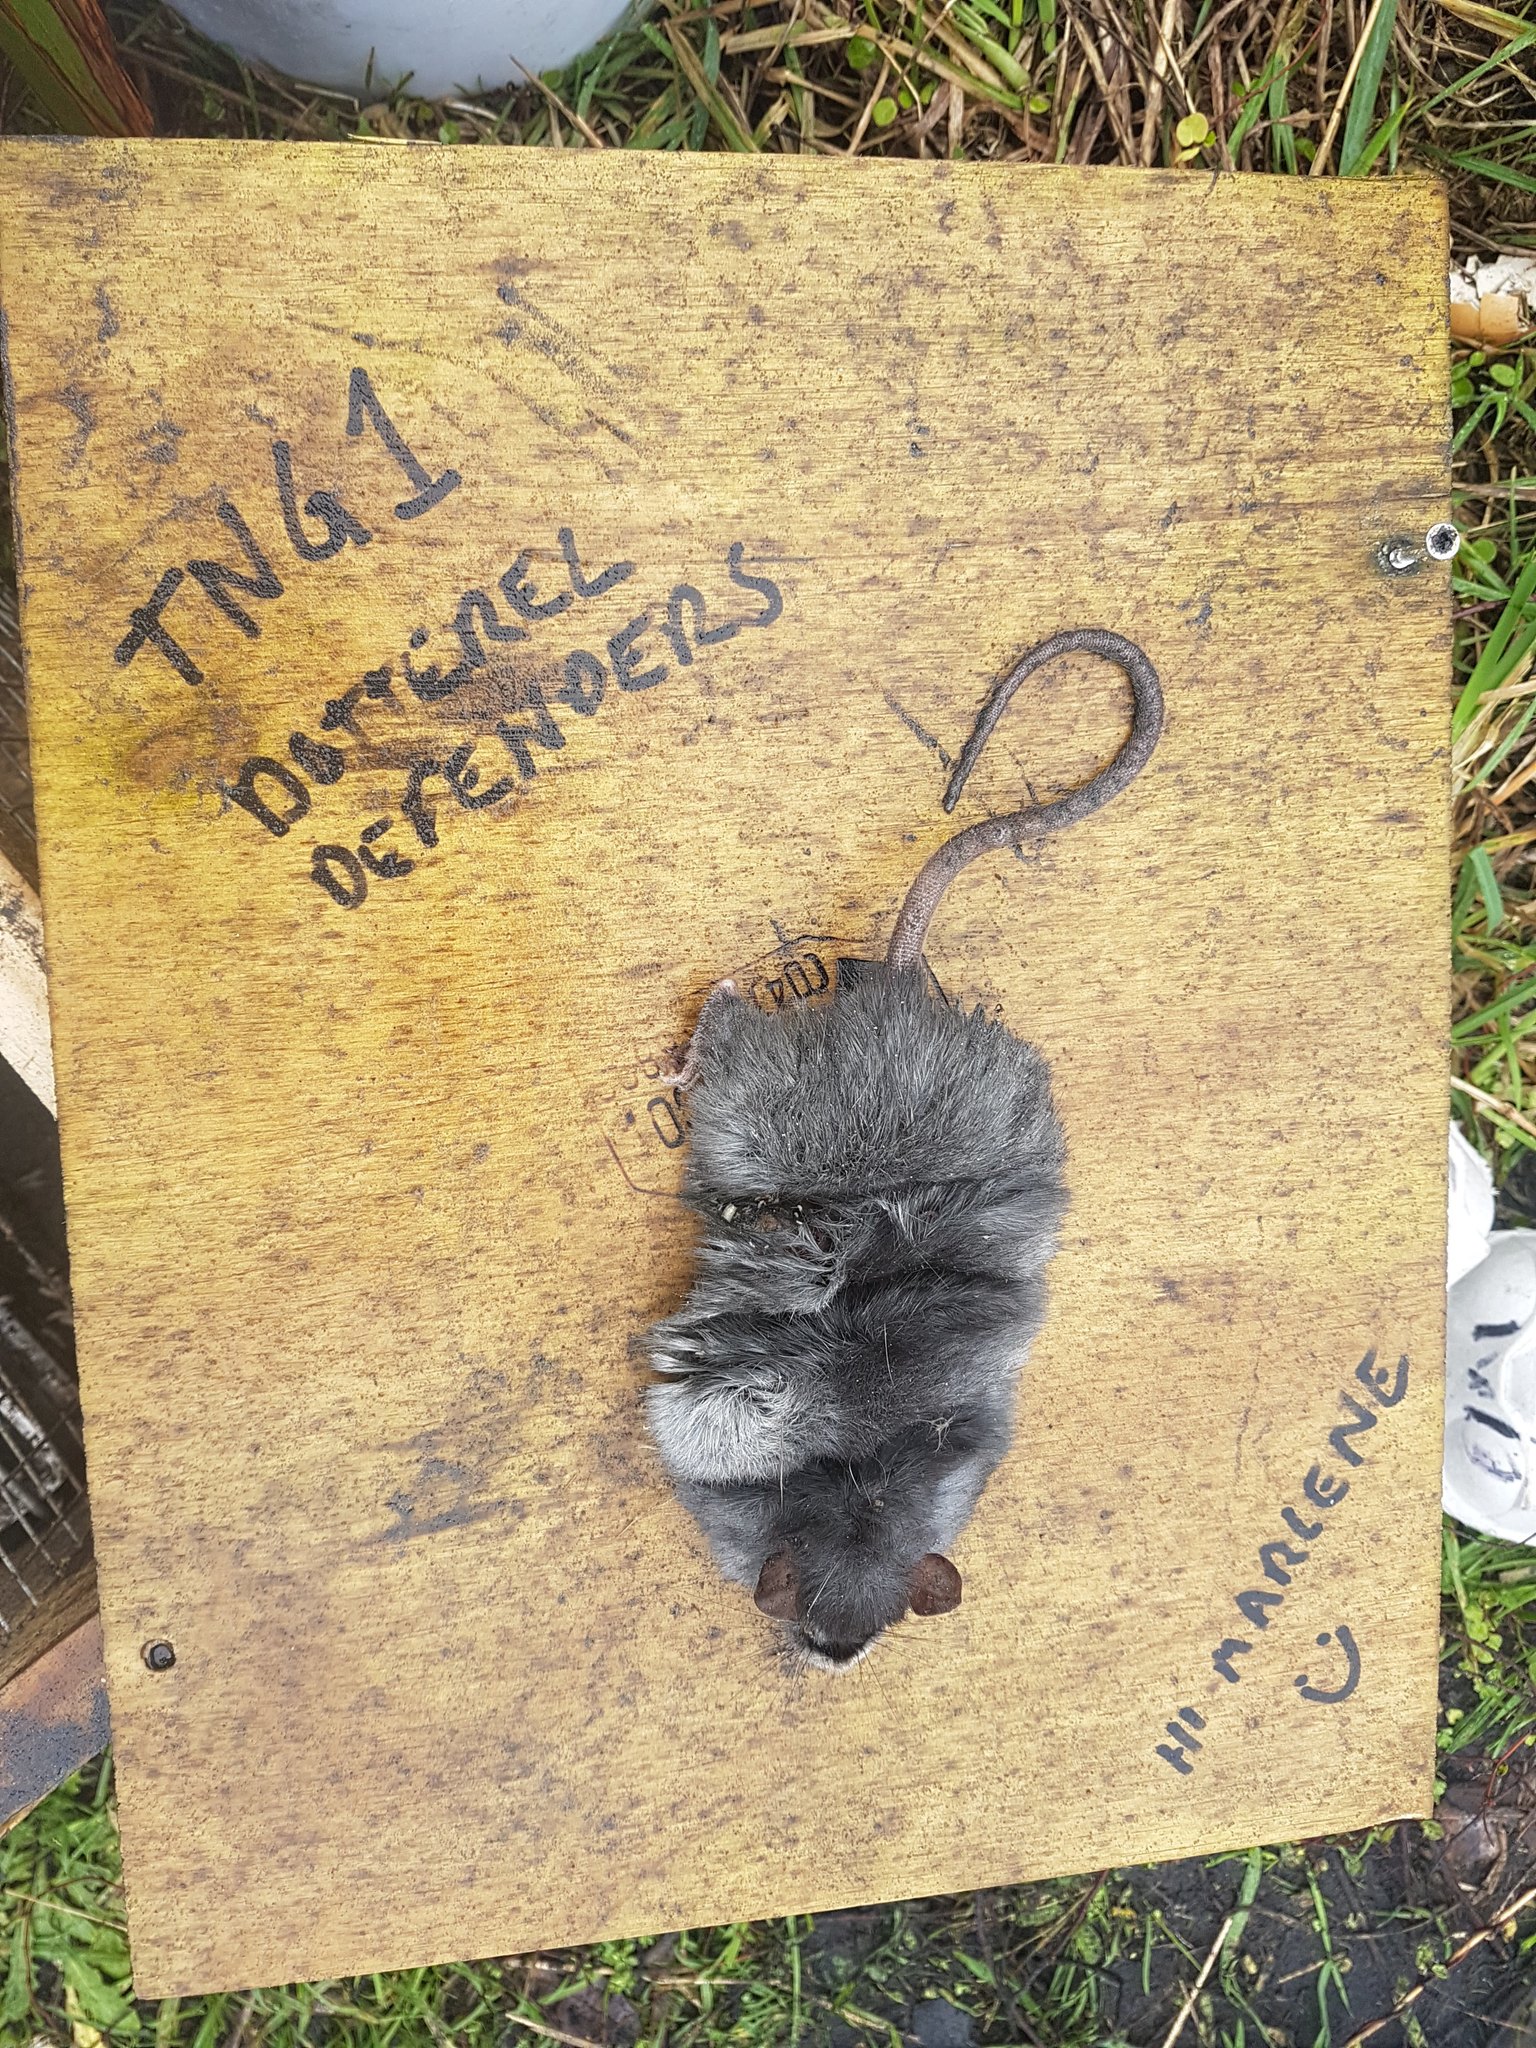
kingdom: Animalia
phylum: Chordata
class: Mammalia
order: Rodentia
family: Muridae
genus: Rattus
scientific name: Rattus rattus
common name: Black rat
